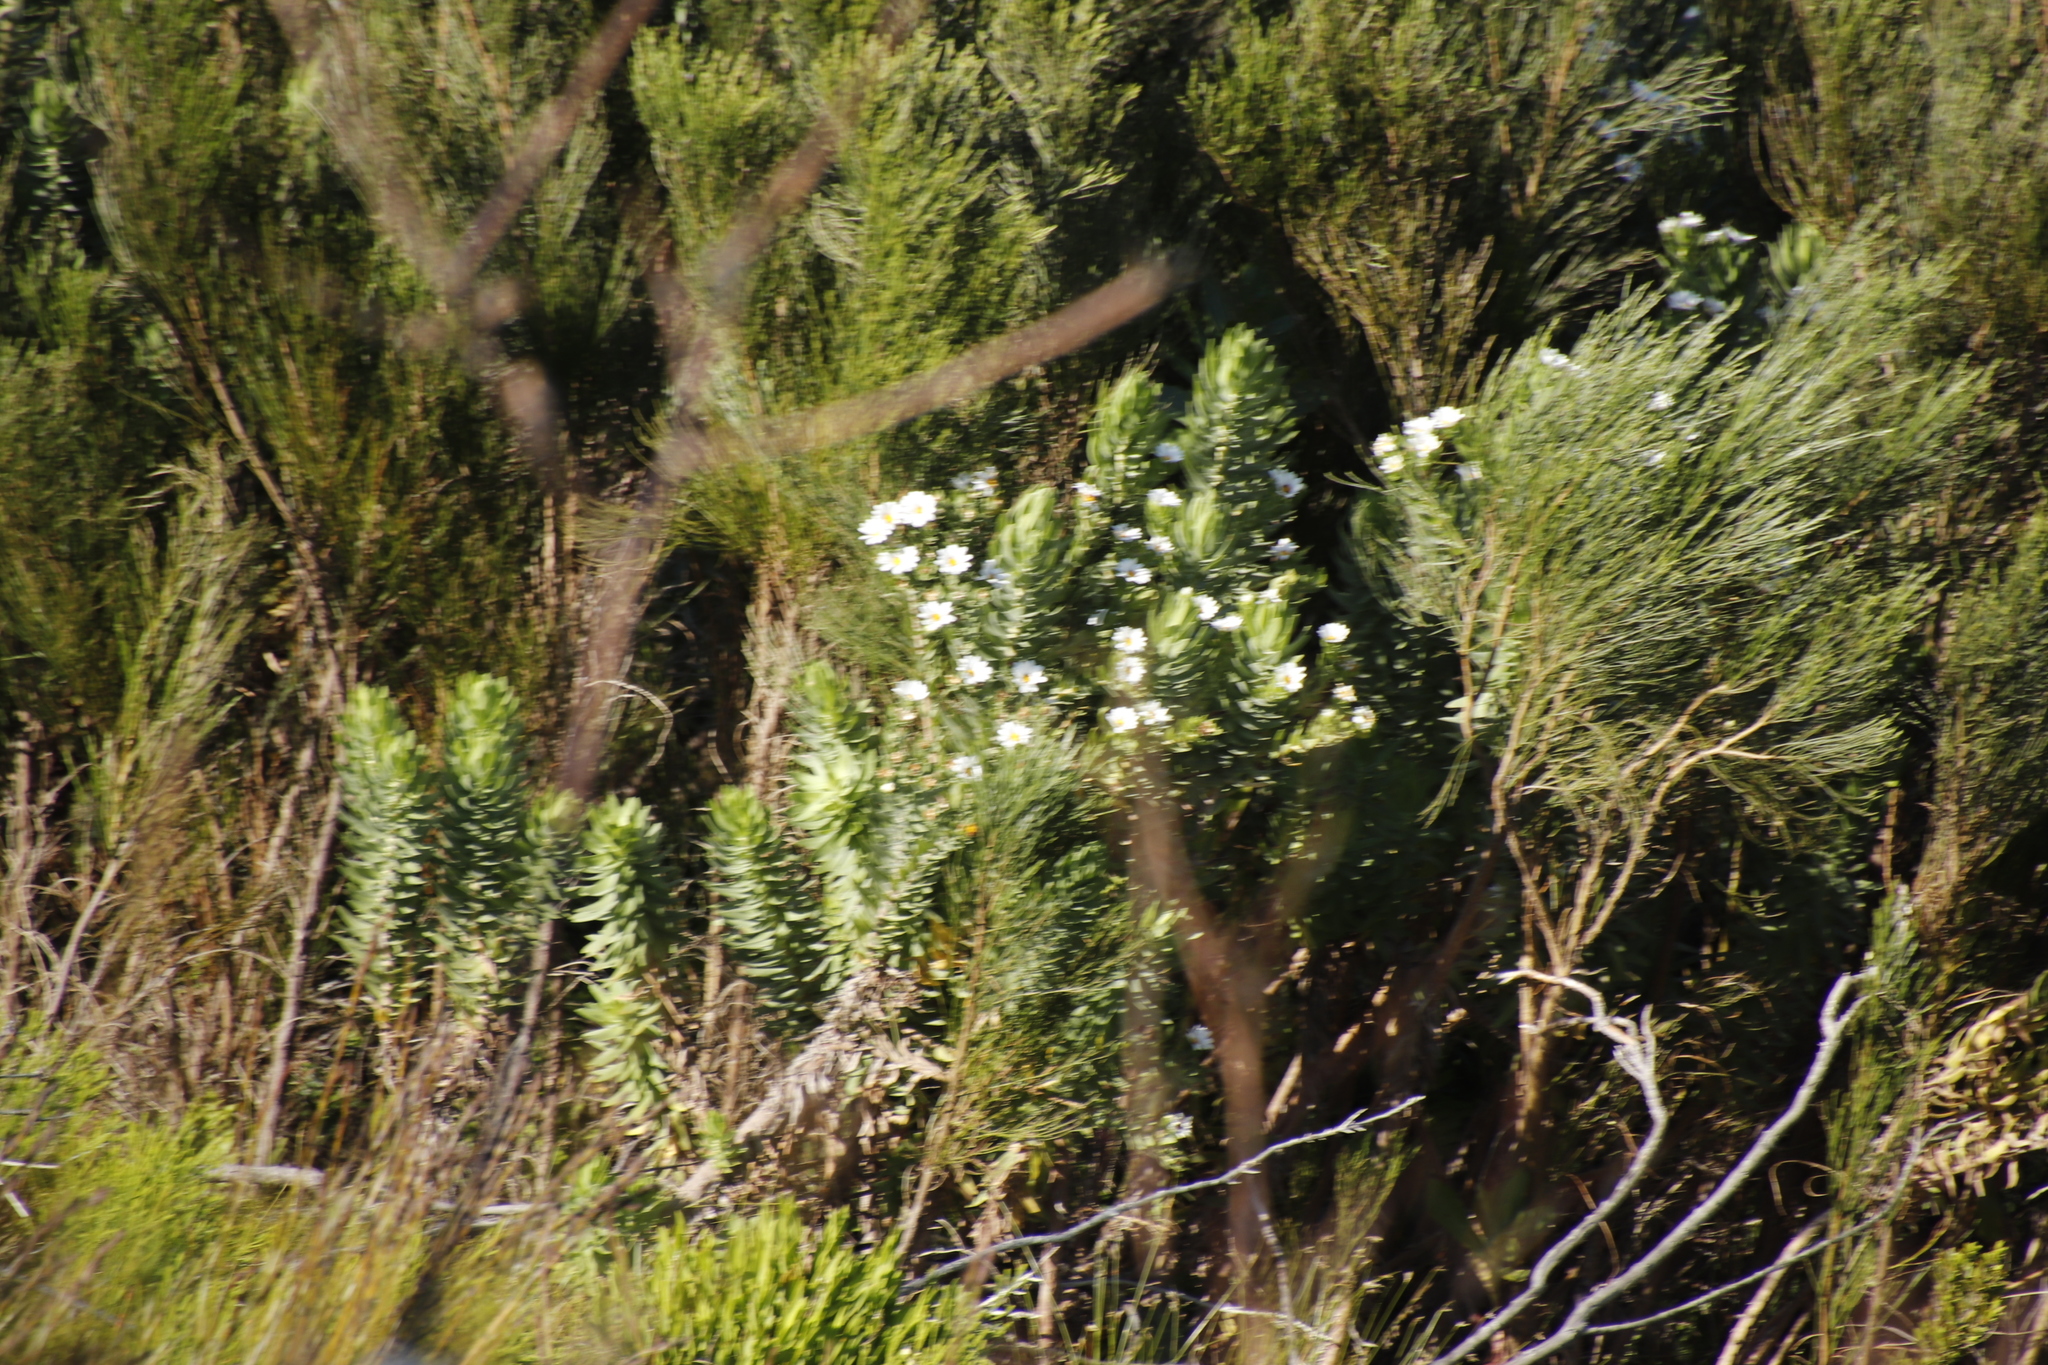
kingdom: Plantae
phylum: Tracheophyta
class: Magnoliopsida
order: Asterales
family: Asteraceae
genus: Osmitopsis
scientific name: Osmitopsis asteriscoides
